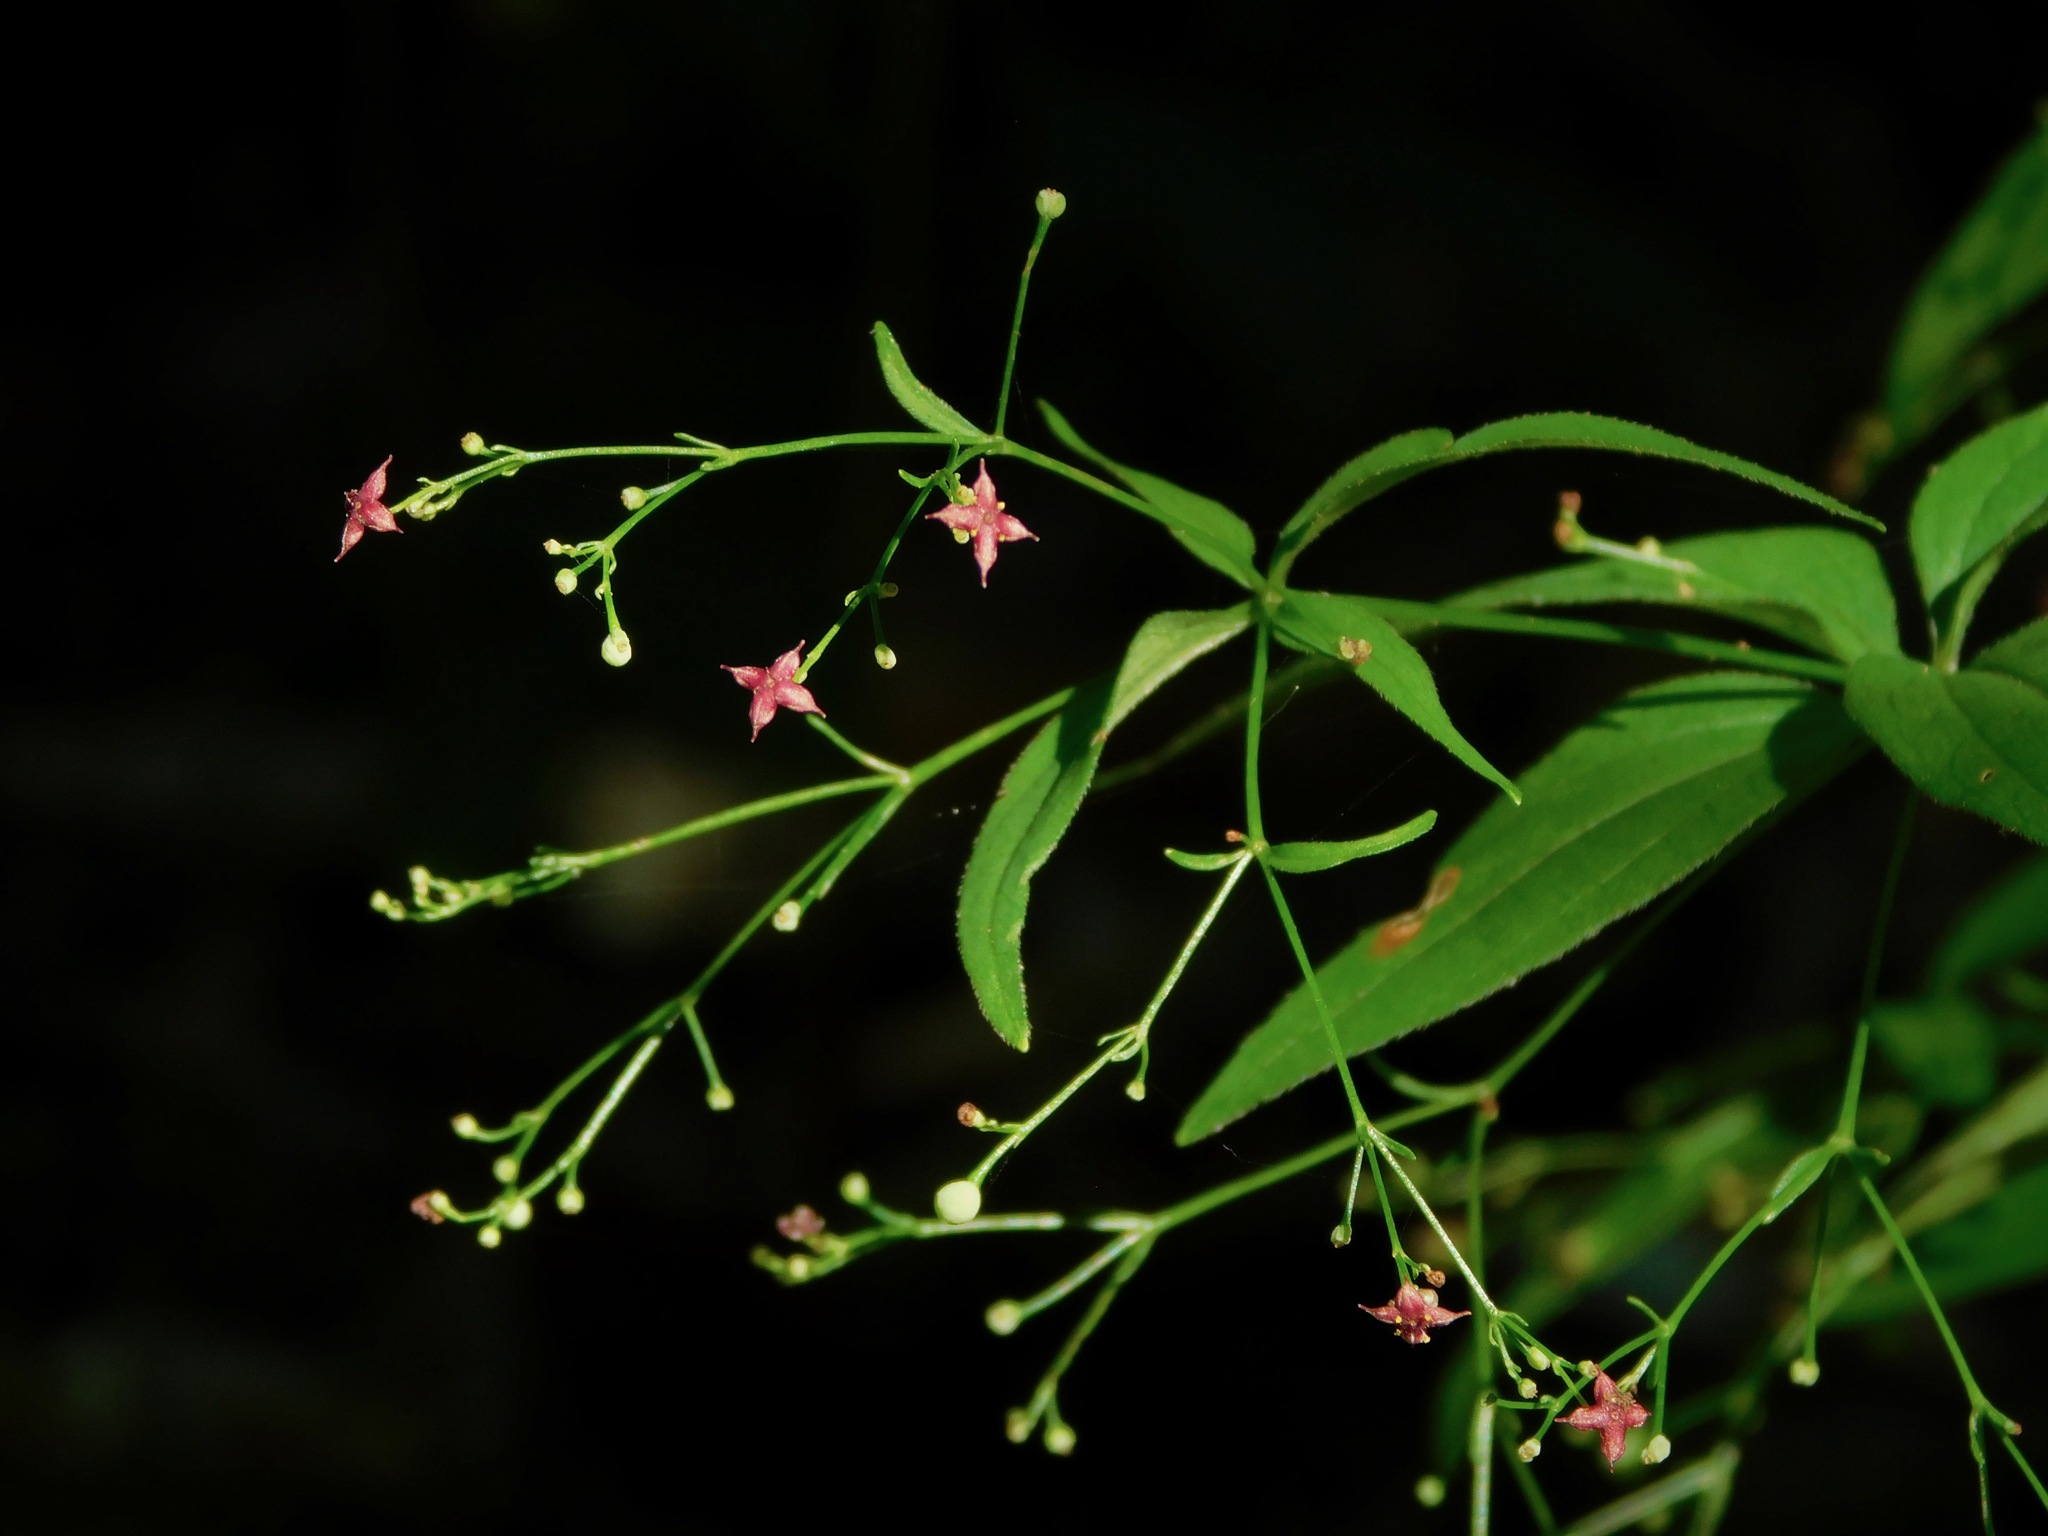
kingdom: Plantae
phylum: Tracheophyta
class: Magnoliopsida
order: Gentianales
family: Rubiaceae
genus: Galium
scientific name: Galium latifolium
